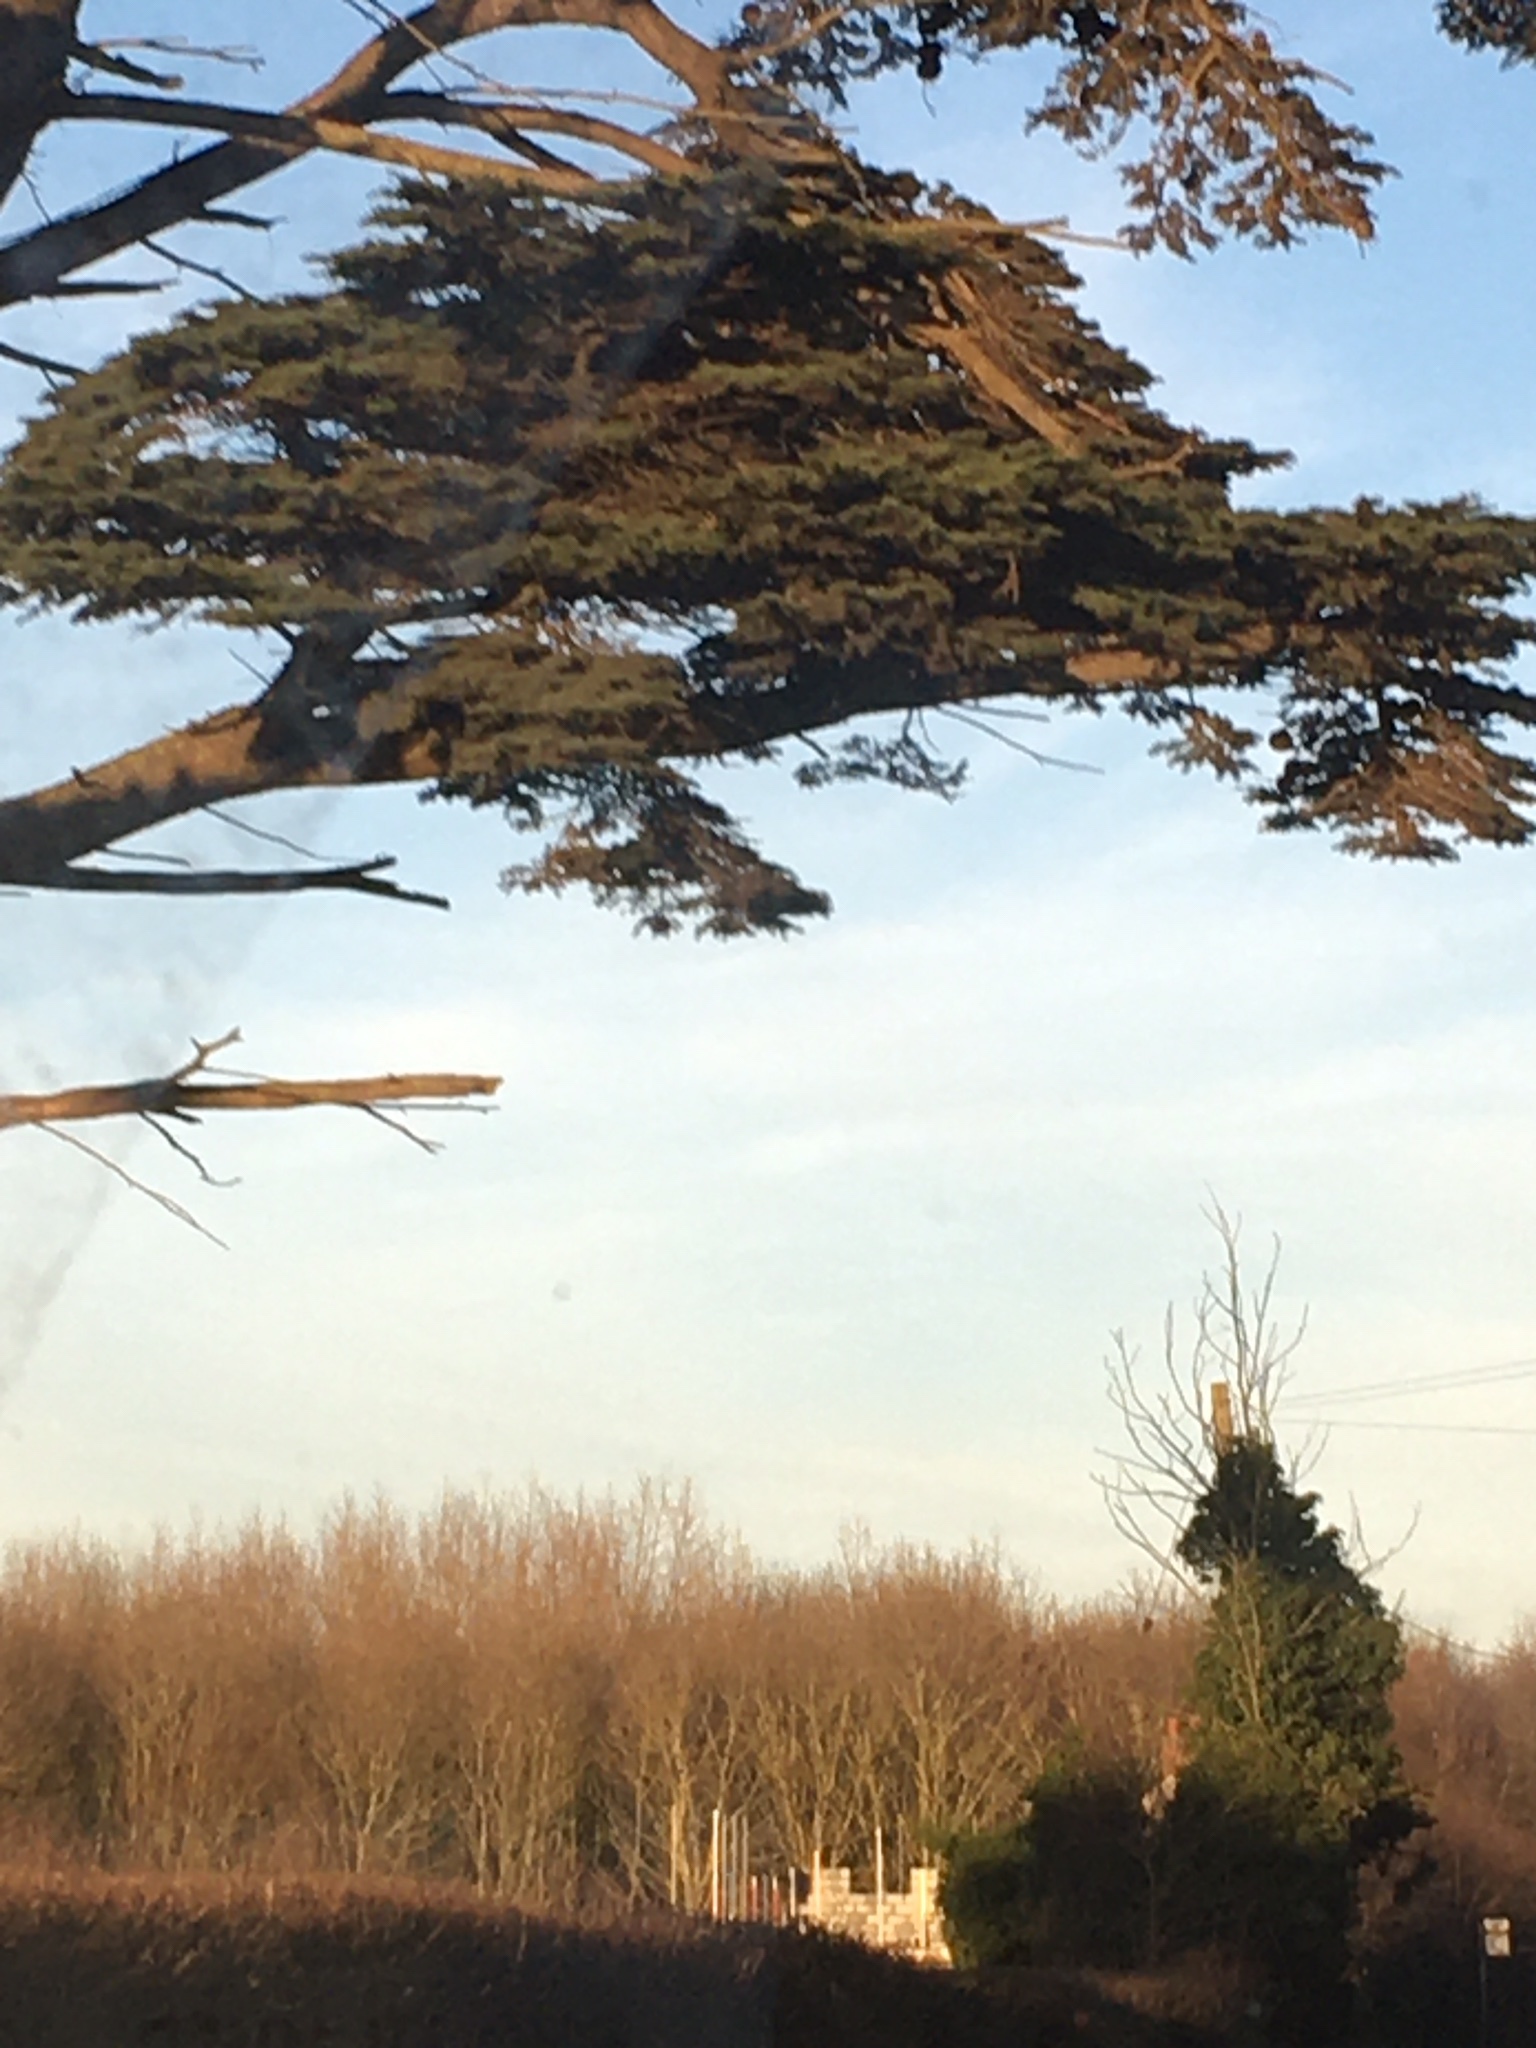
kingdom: Plantae
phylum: Tracheophyta
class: Pinopsida
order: Pinales
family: Pinaceae
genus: Cedrus
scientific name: Cedrus libani
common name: Cedar-of-lebanon
